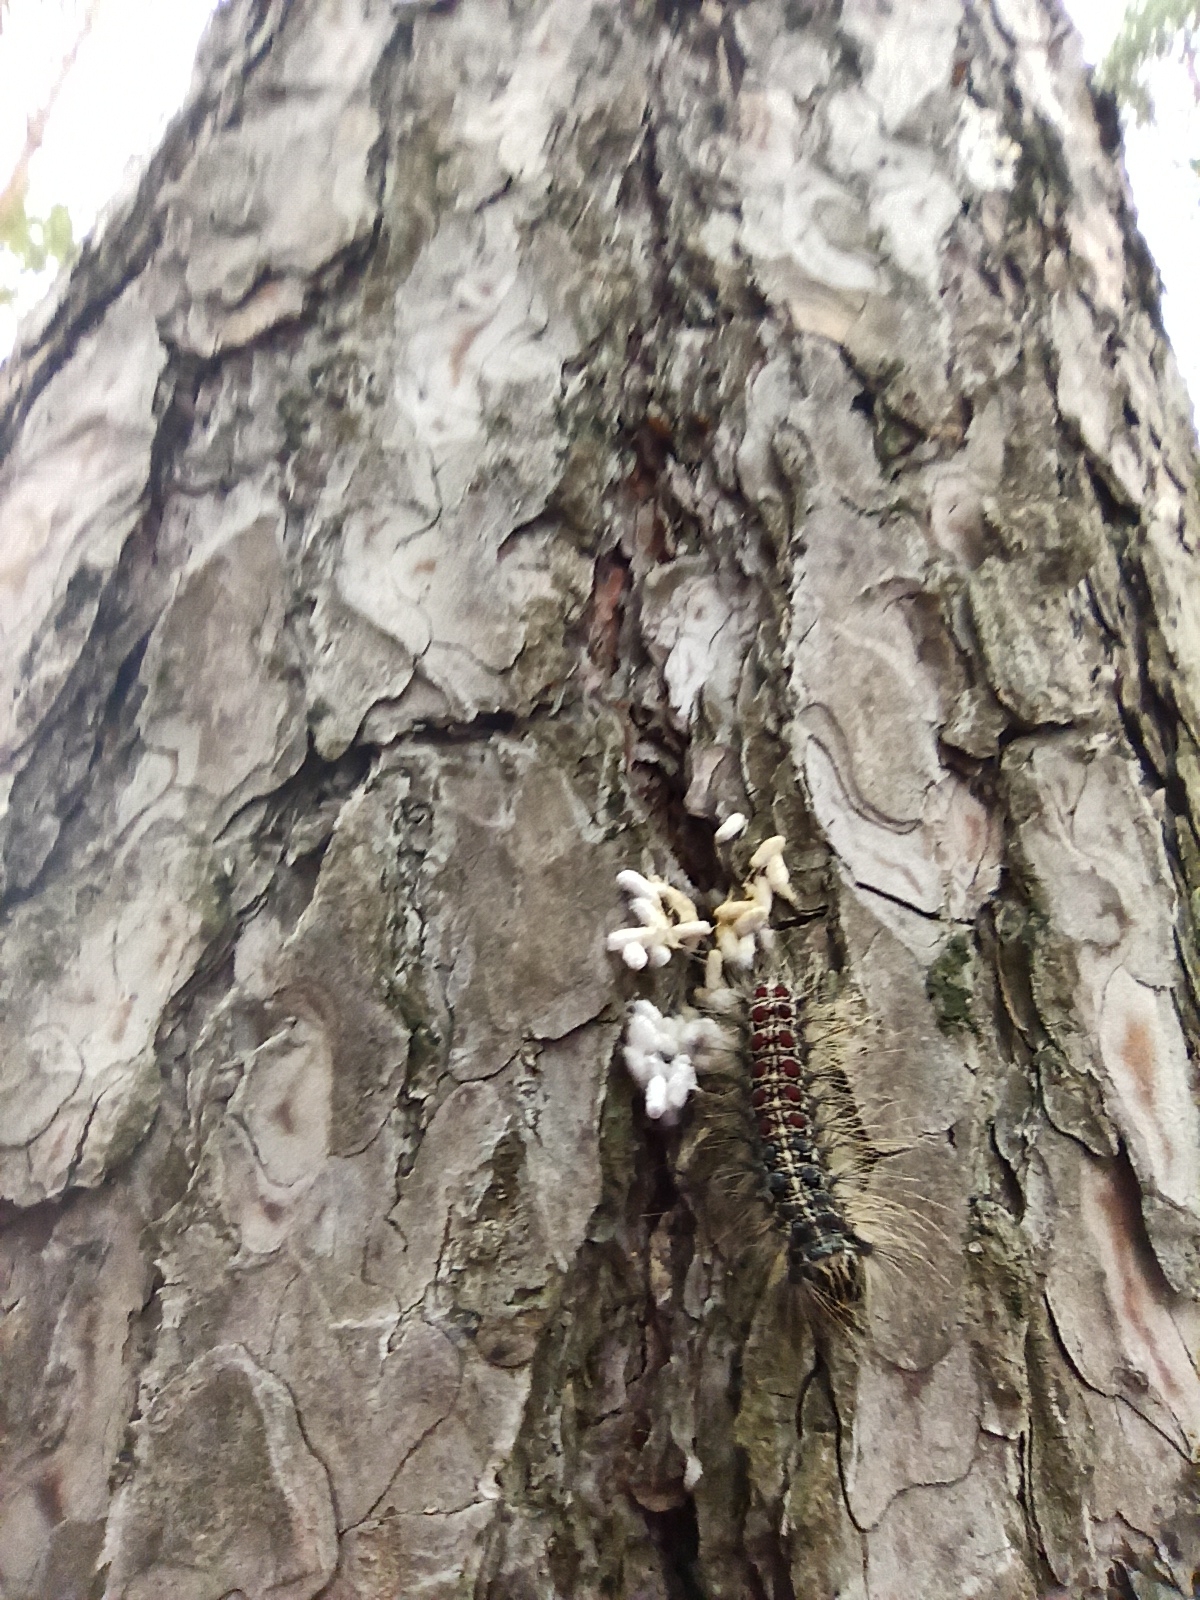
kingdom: Animalia
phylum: Arthropoda
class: Insecta
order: Lepidoptera
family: Erebidae
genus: Lymantria
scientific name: Lymantria dispar
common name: Gypsy moth
